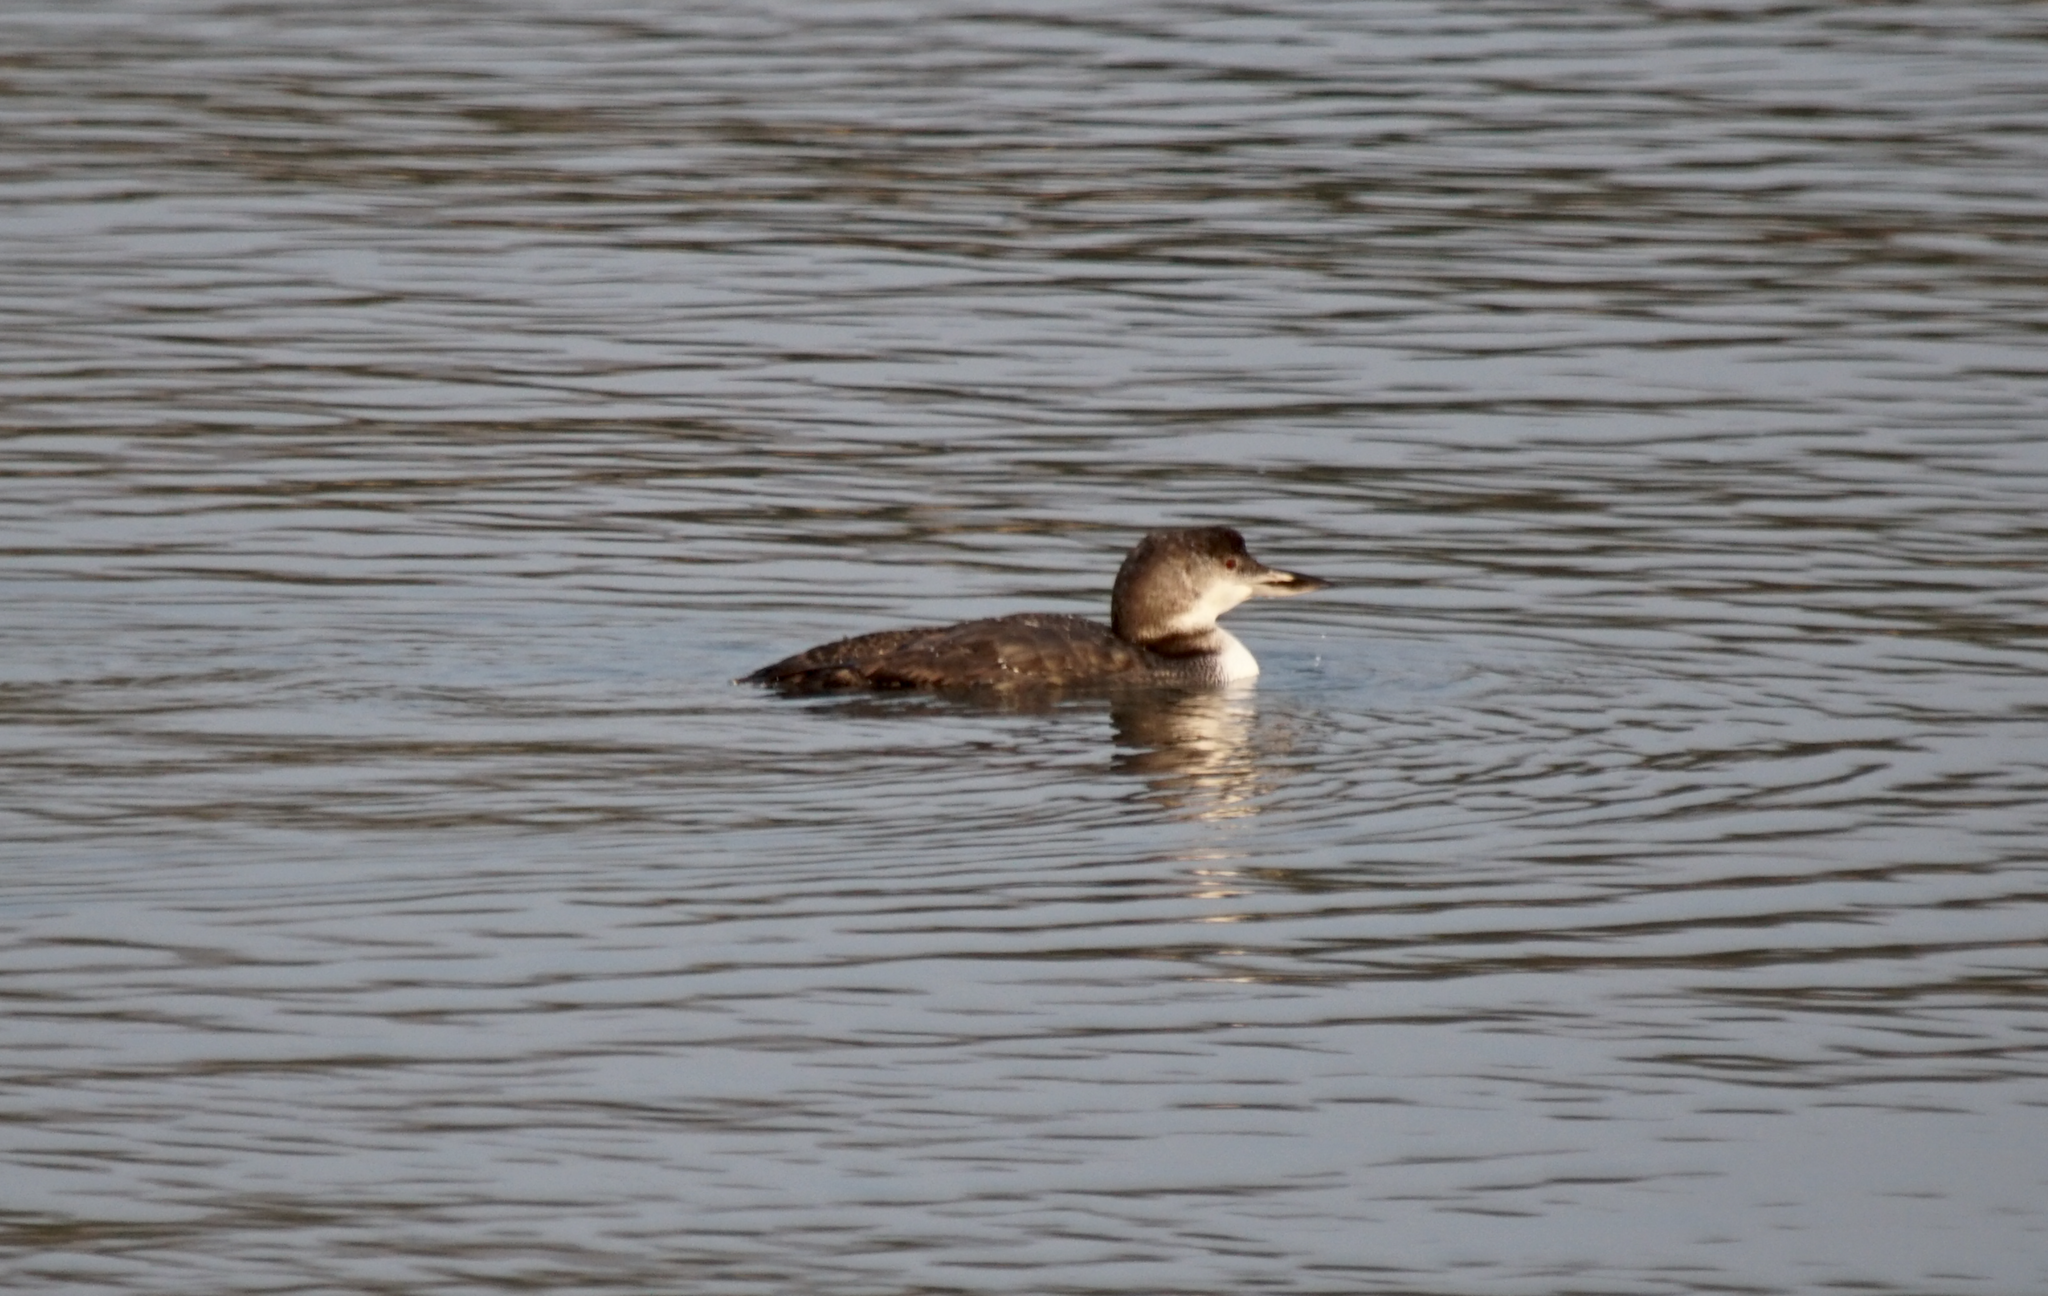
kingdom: Animalia
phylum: Chordata
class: Aves
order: Gaviiformes
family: Gaviidae
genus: Gavia
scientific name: Gavia immer
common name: Common loon
